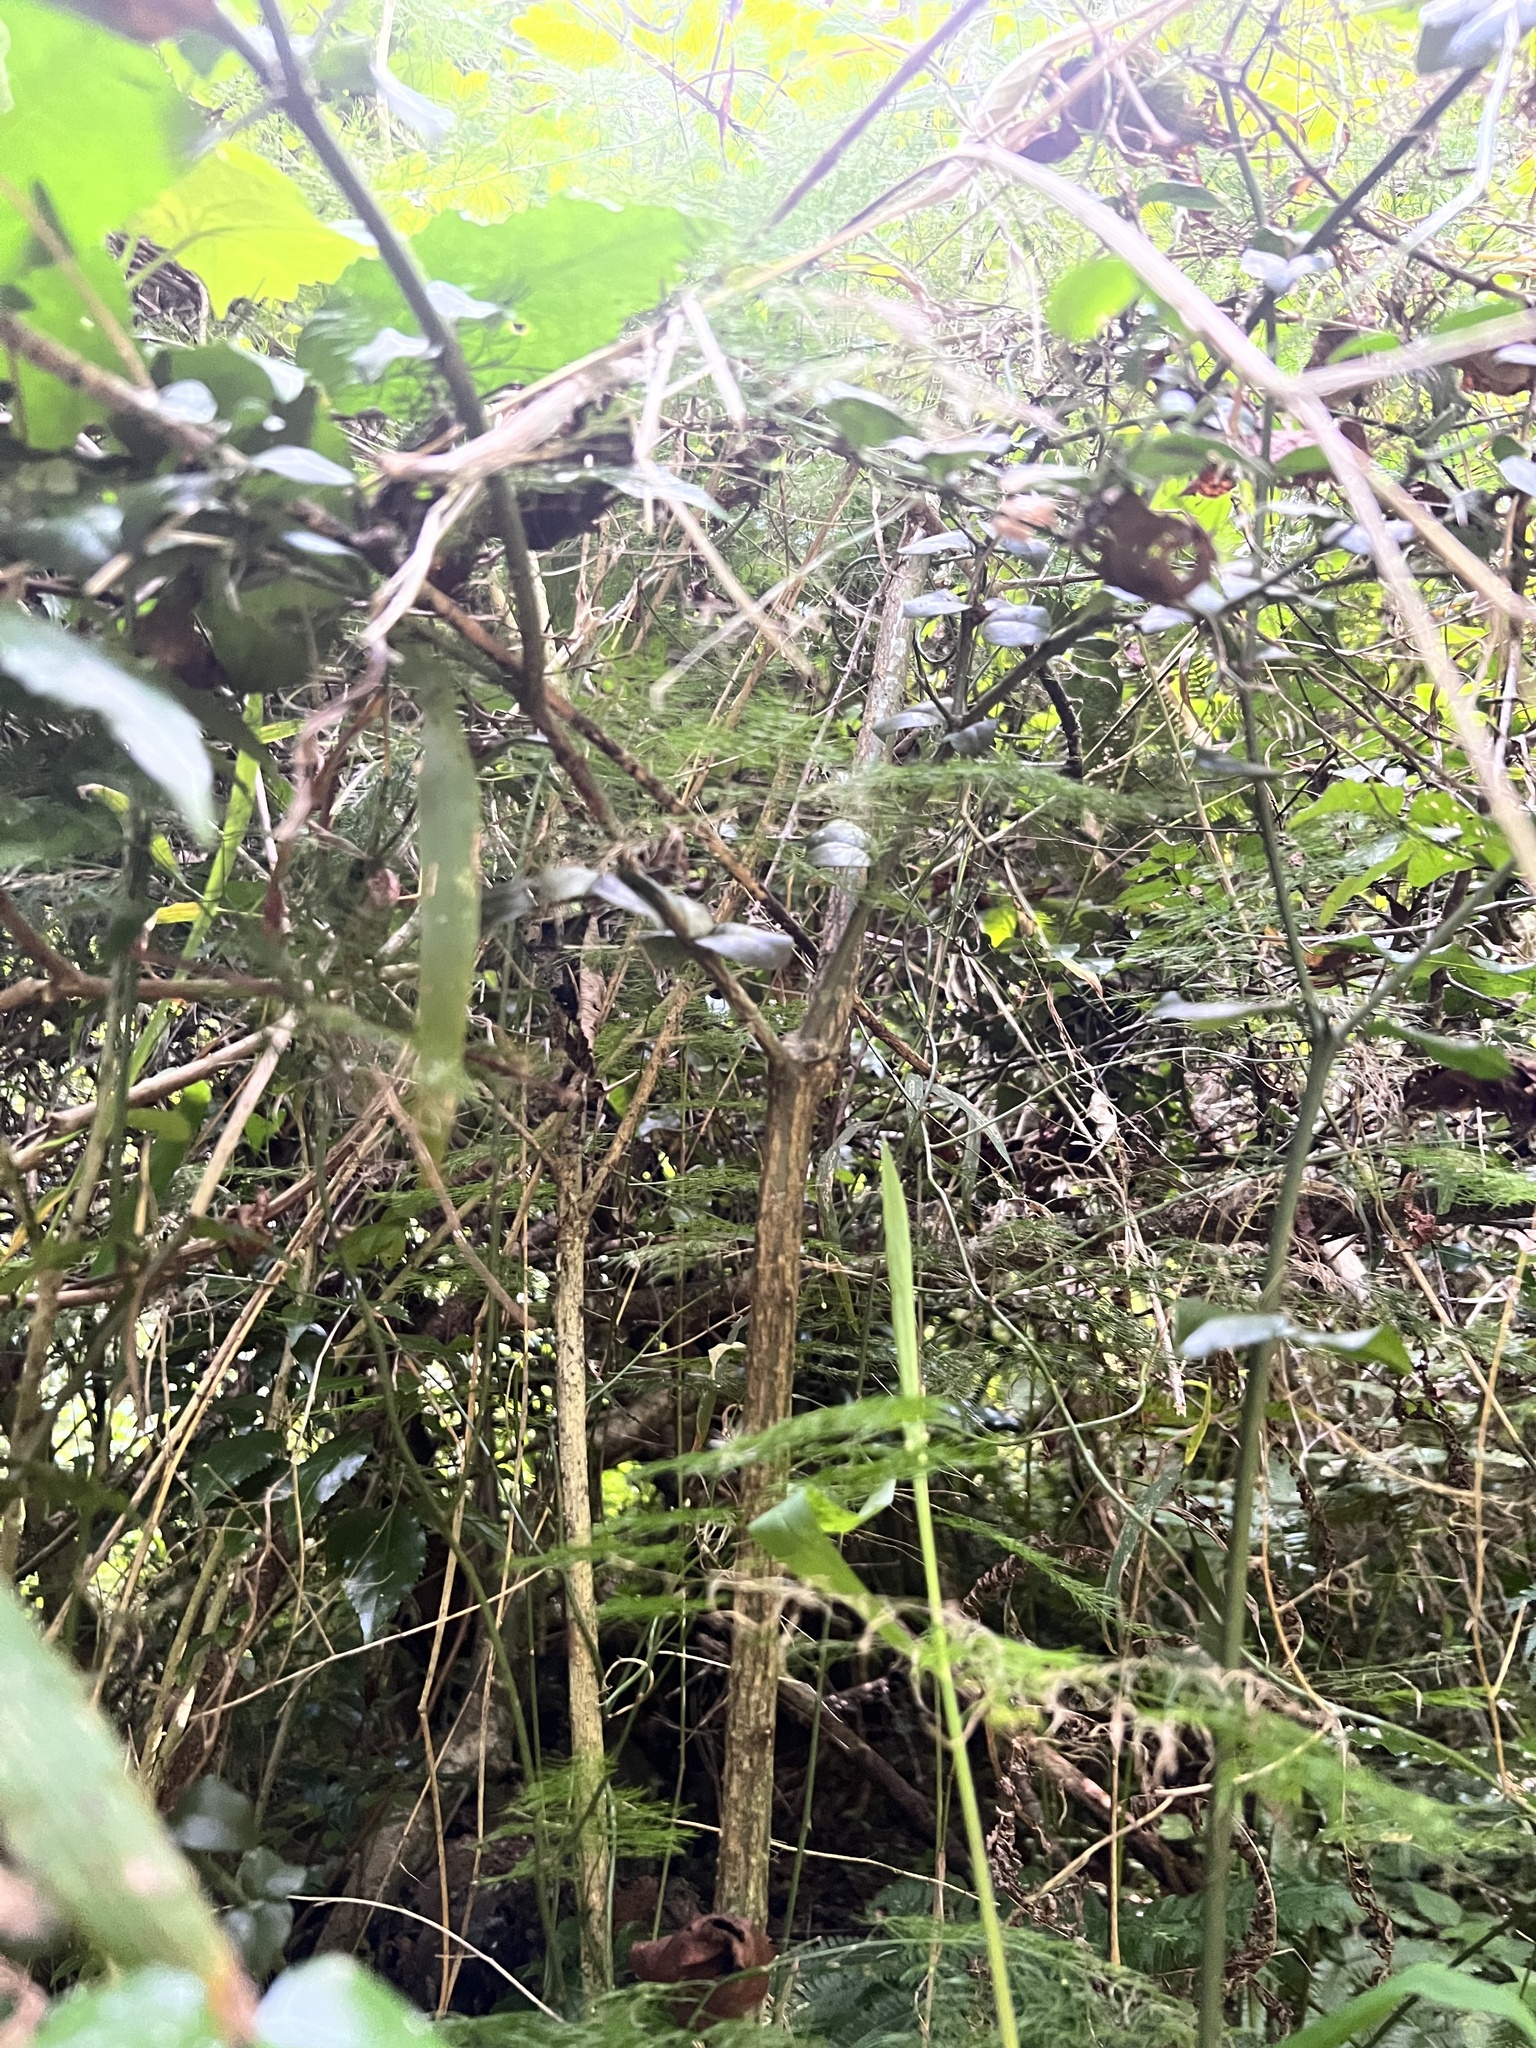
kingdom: Plantae
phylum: Tracheophyta
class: Liliopsida
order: Asparagales
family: Asparagaceae
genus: Asparagus
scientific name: Asparagus sylvicola
